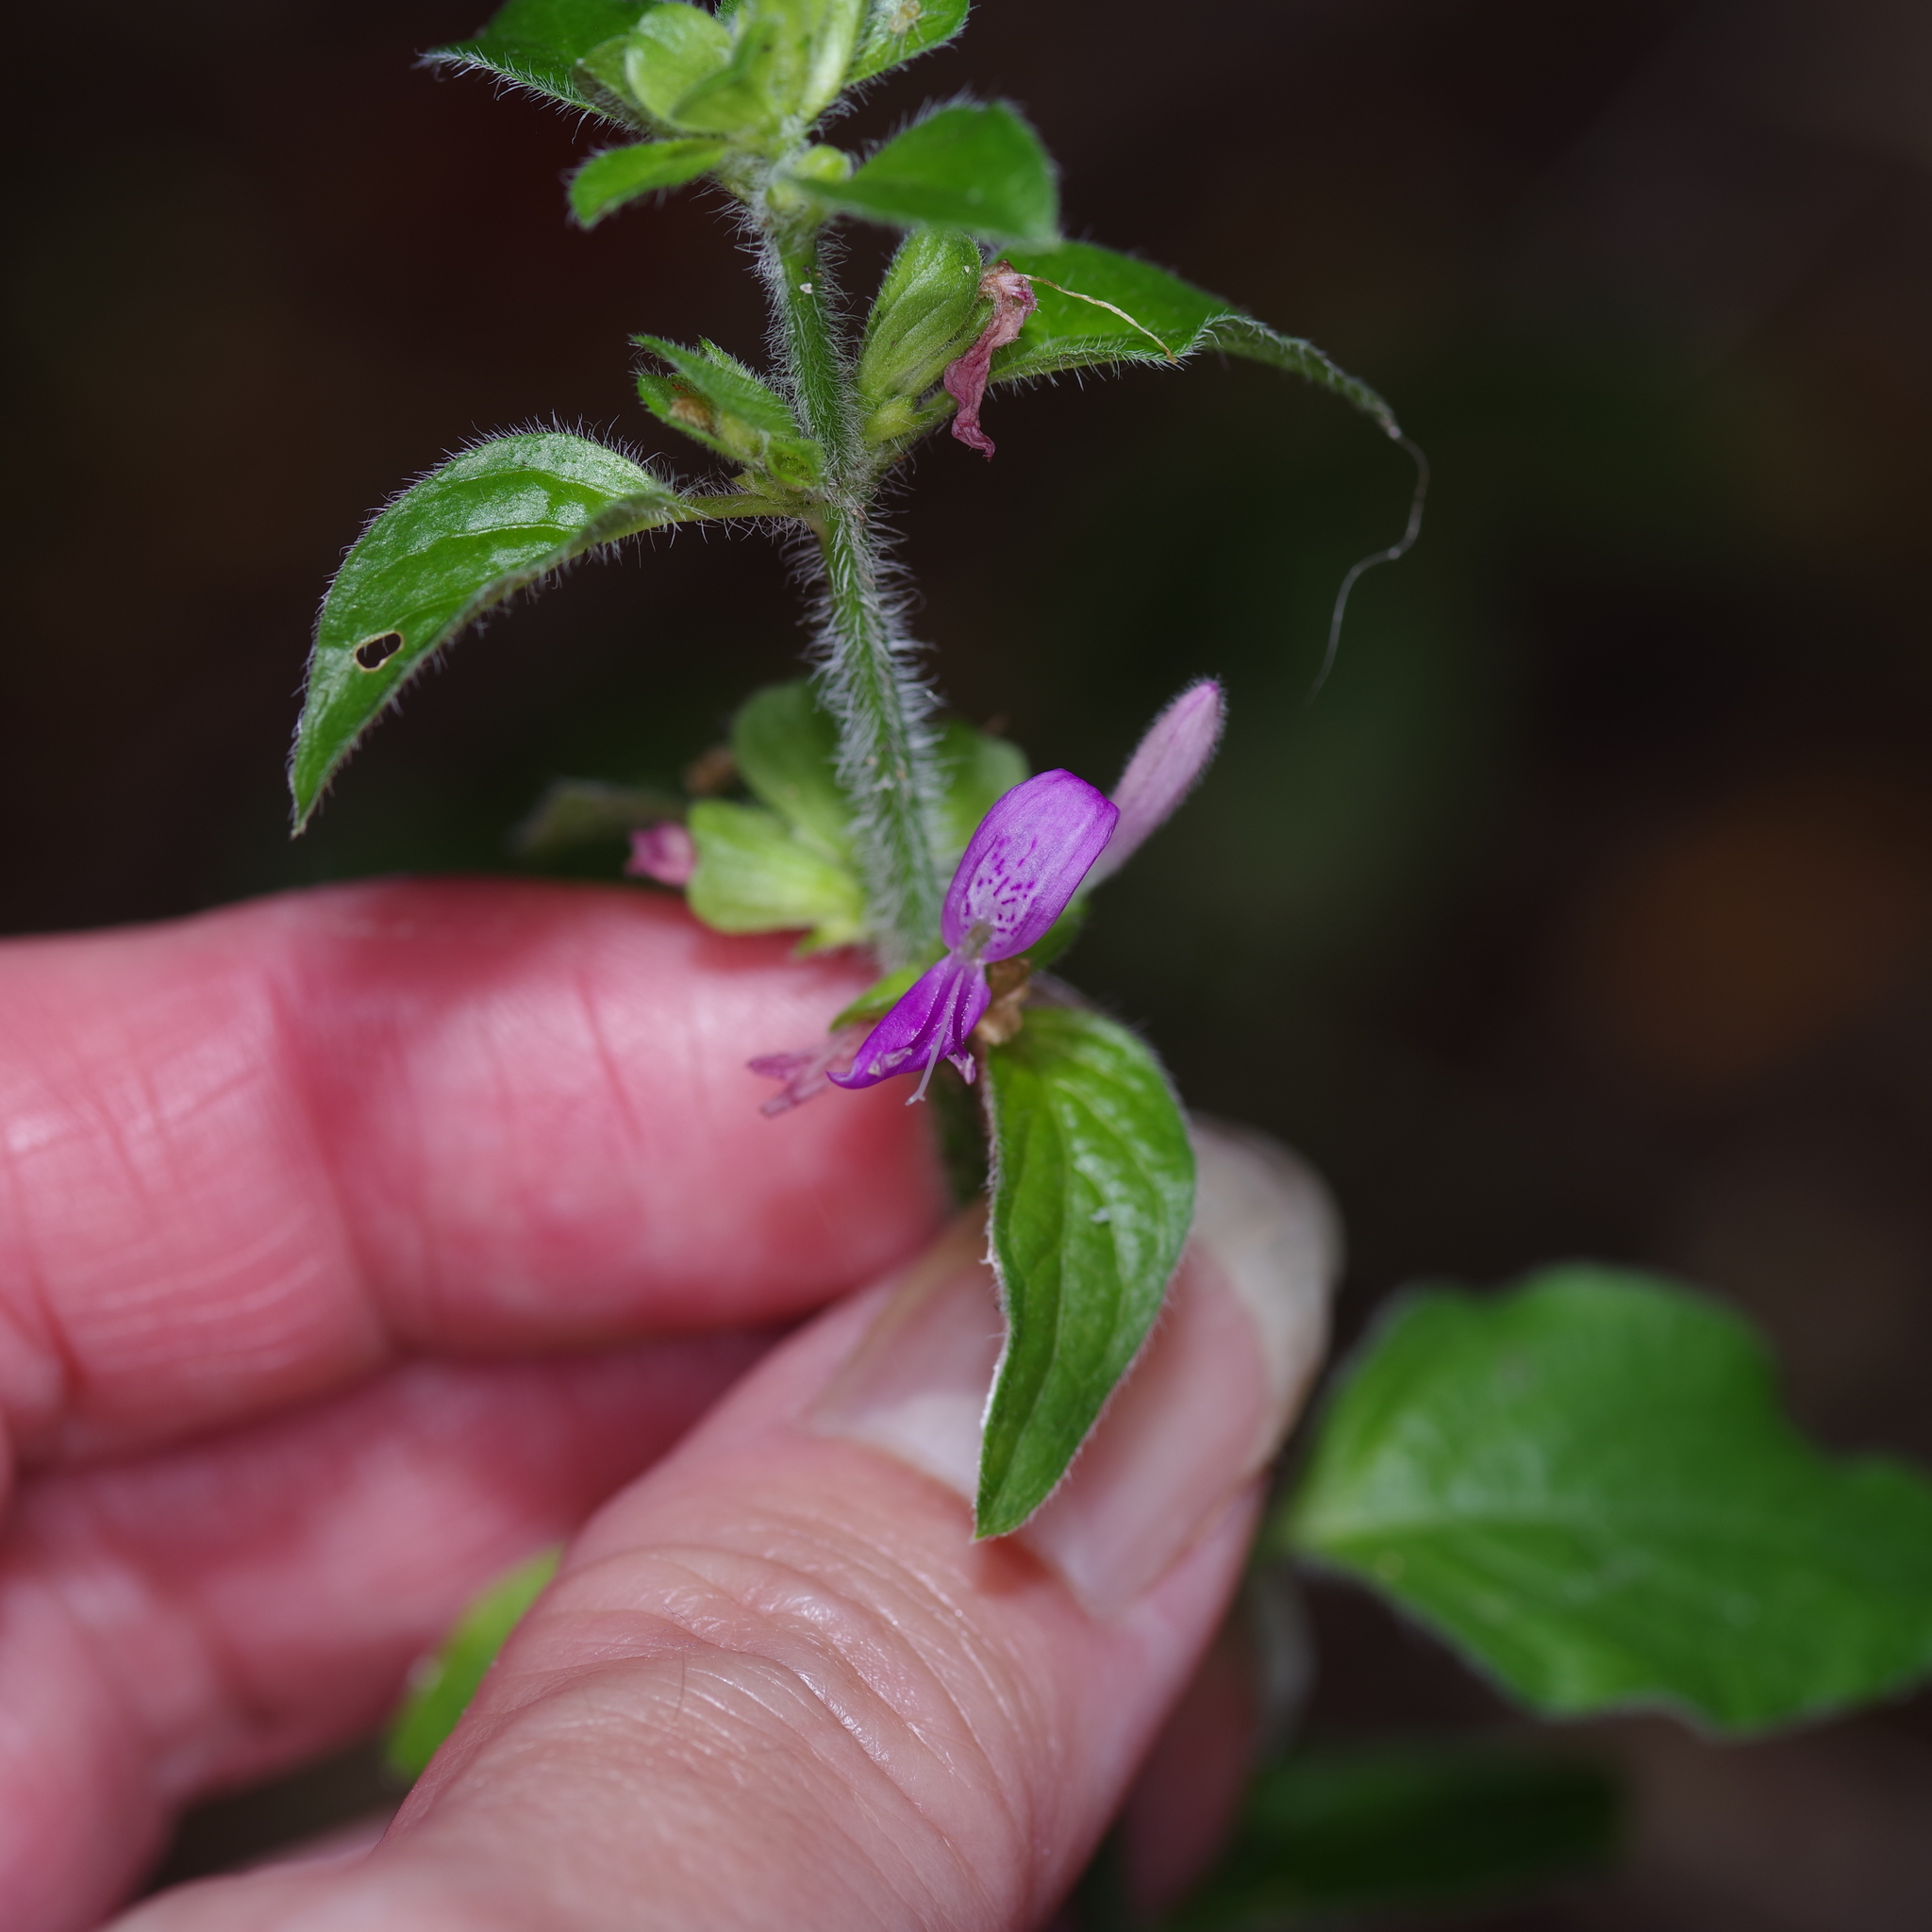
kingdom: Plantae
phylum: Tracheophyta
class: Magnoliopsida
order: Lamiales
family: Acanthaceae
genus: Dicliptera
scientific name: Dicliptera brachiata
